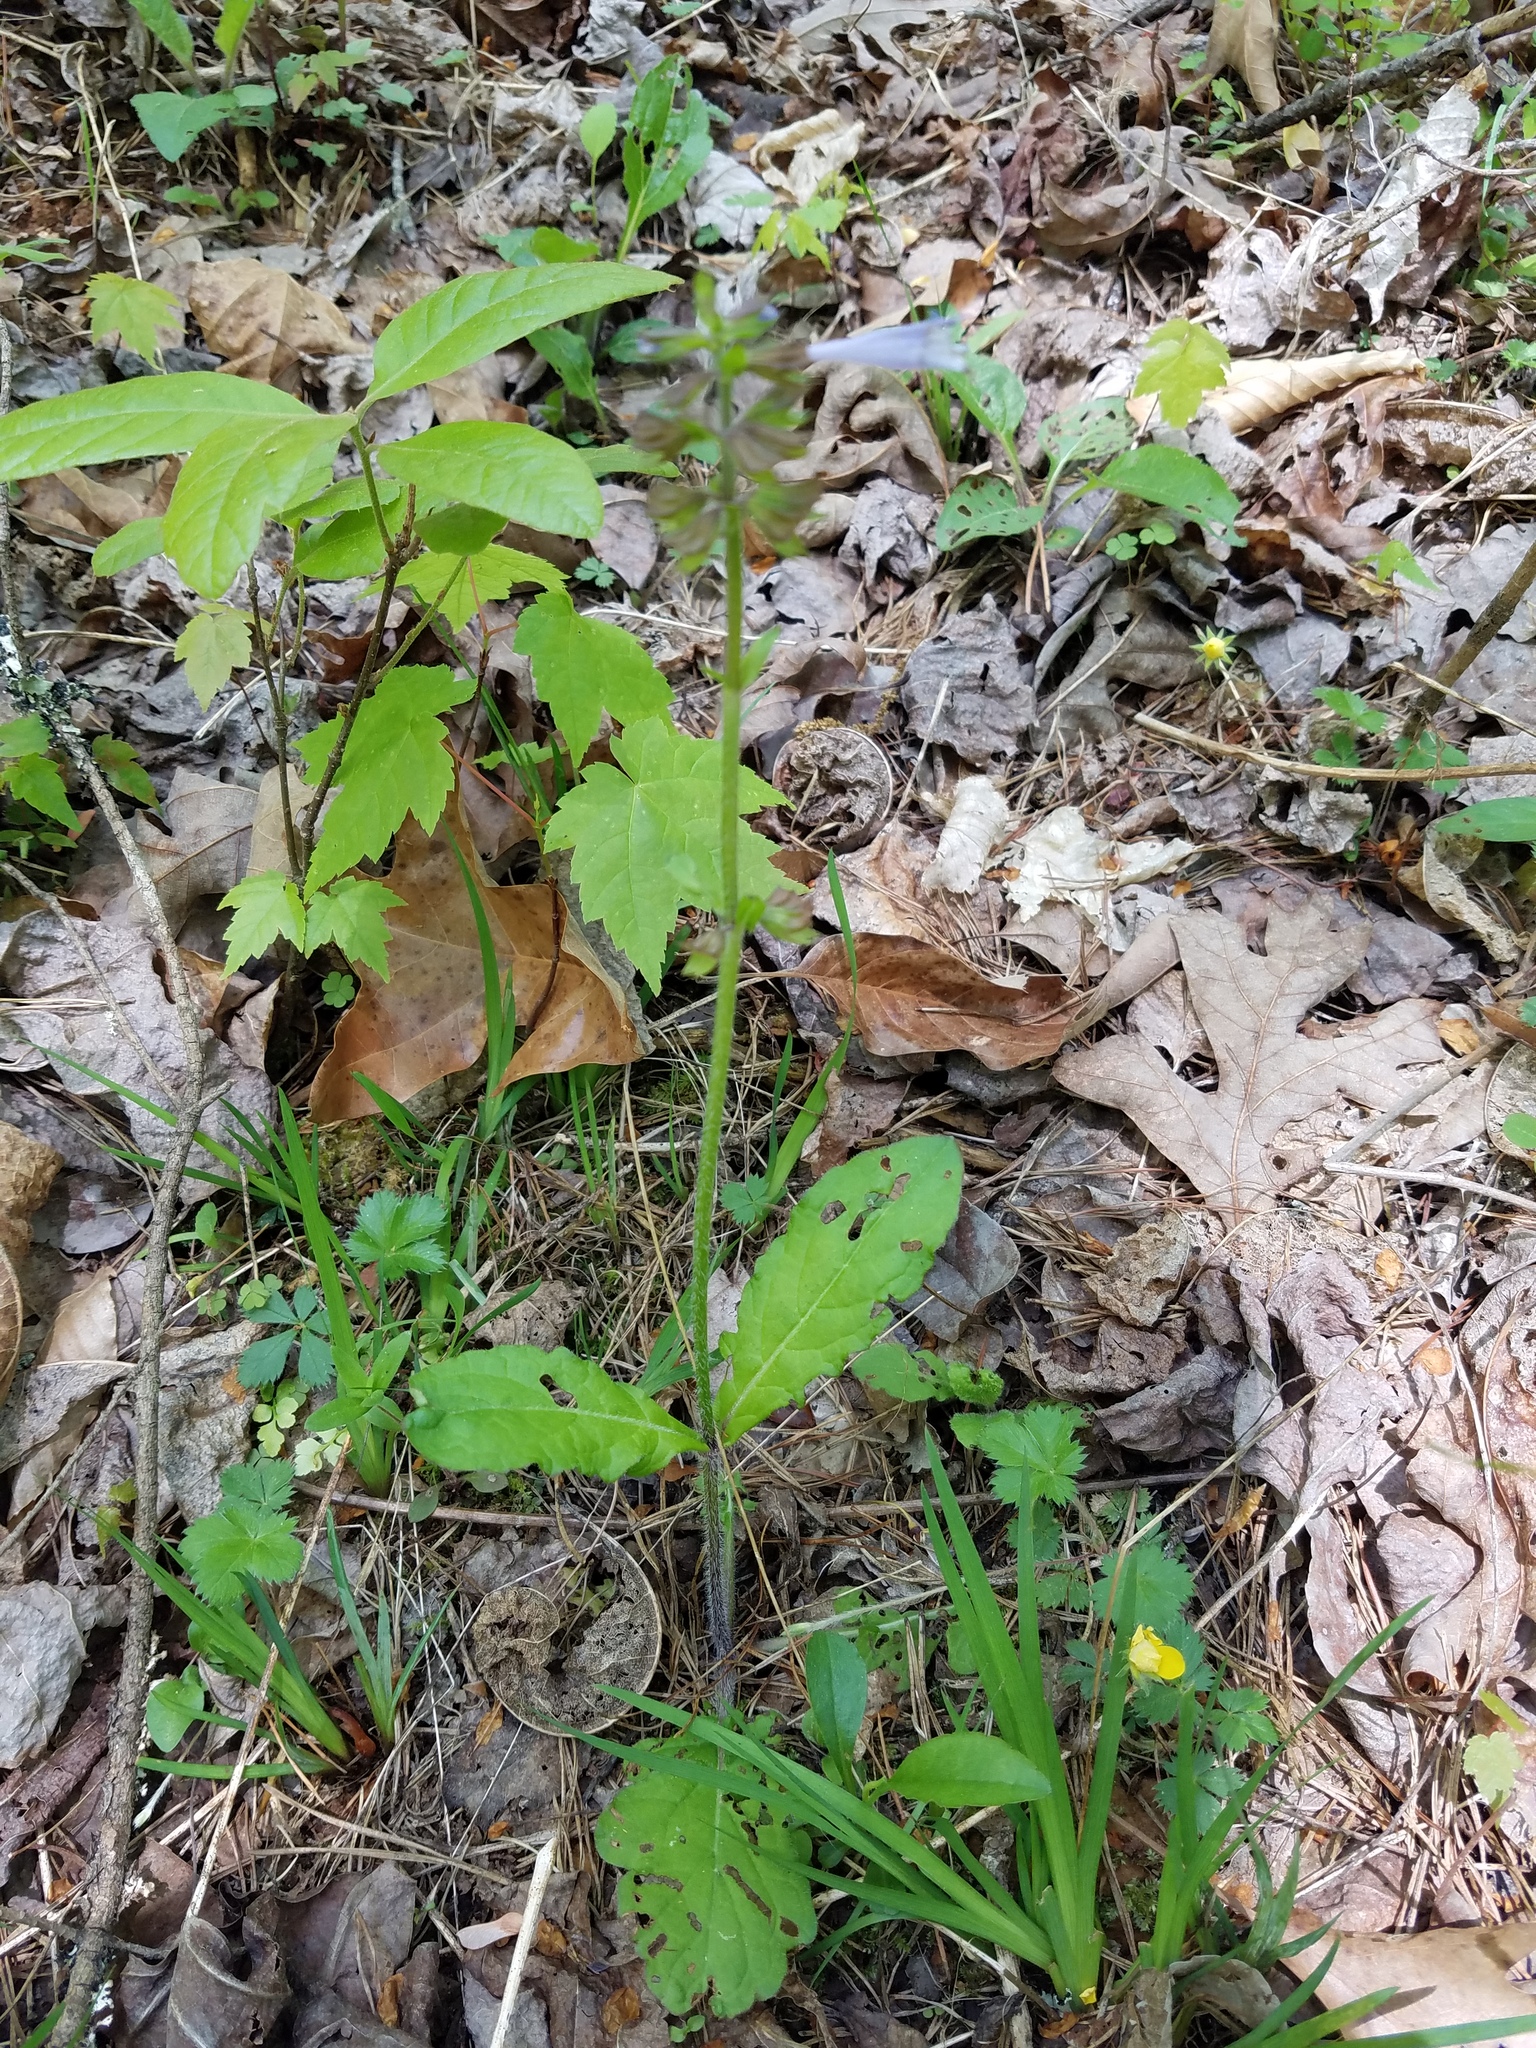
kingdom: Plantae
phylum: Tracheophyta
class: Magnoliopsida
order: Lamiales
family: Lamiaceae
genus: Salvia
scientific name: Salvia lyrata
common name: Cancerweed
